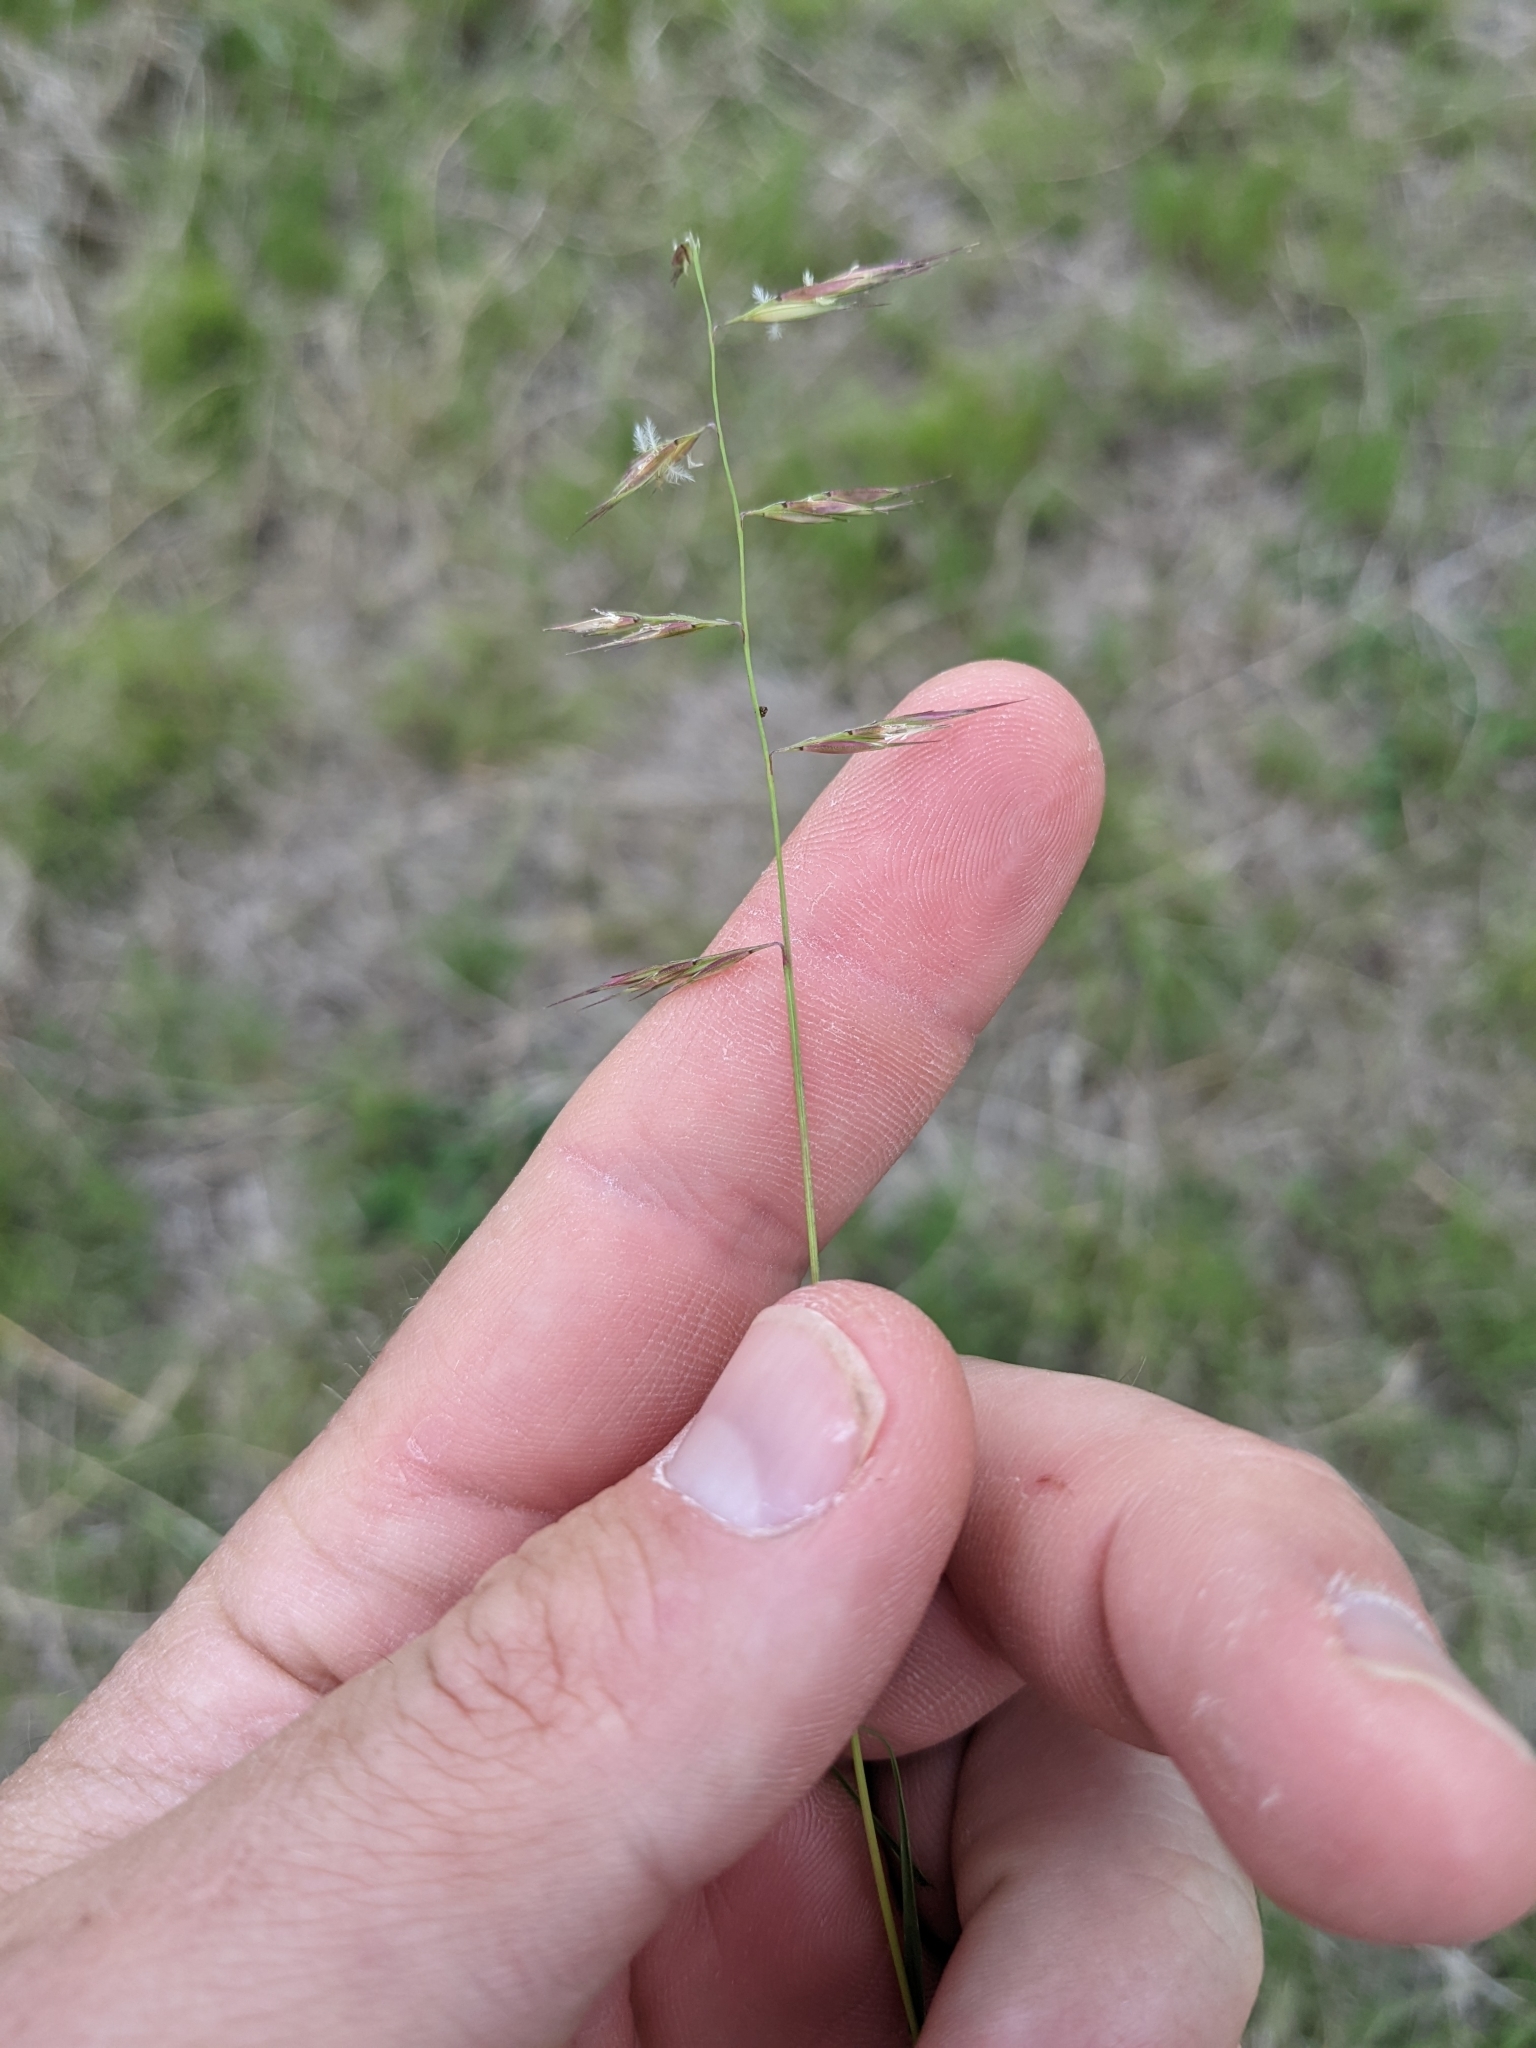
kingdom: Plantae
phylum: Tracheophyta
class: Liliopsida
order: Poales
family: Poaceae
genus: Bouteloua
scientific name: Bouteloua repens
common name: Slender grama
